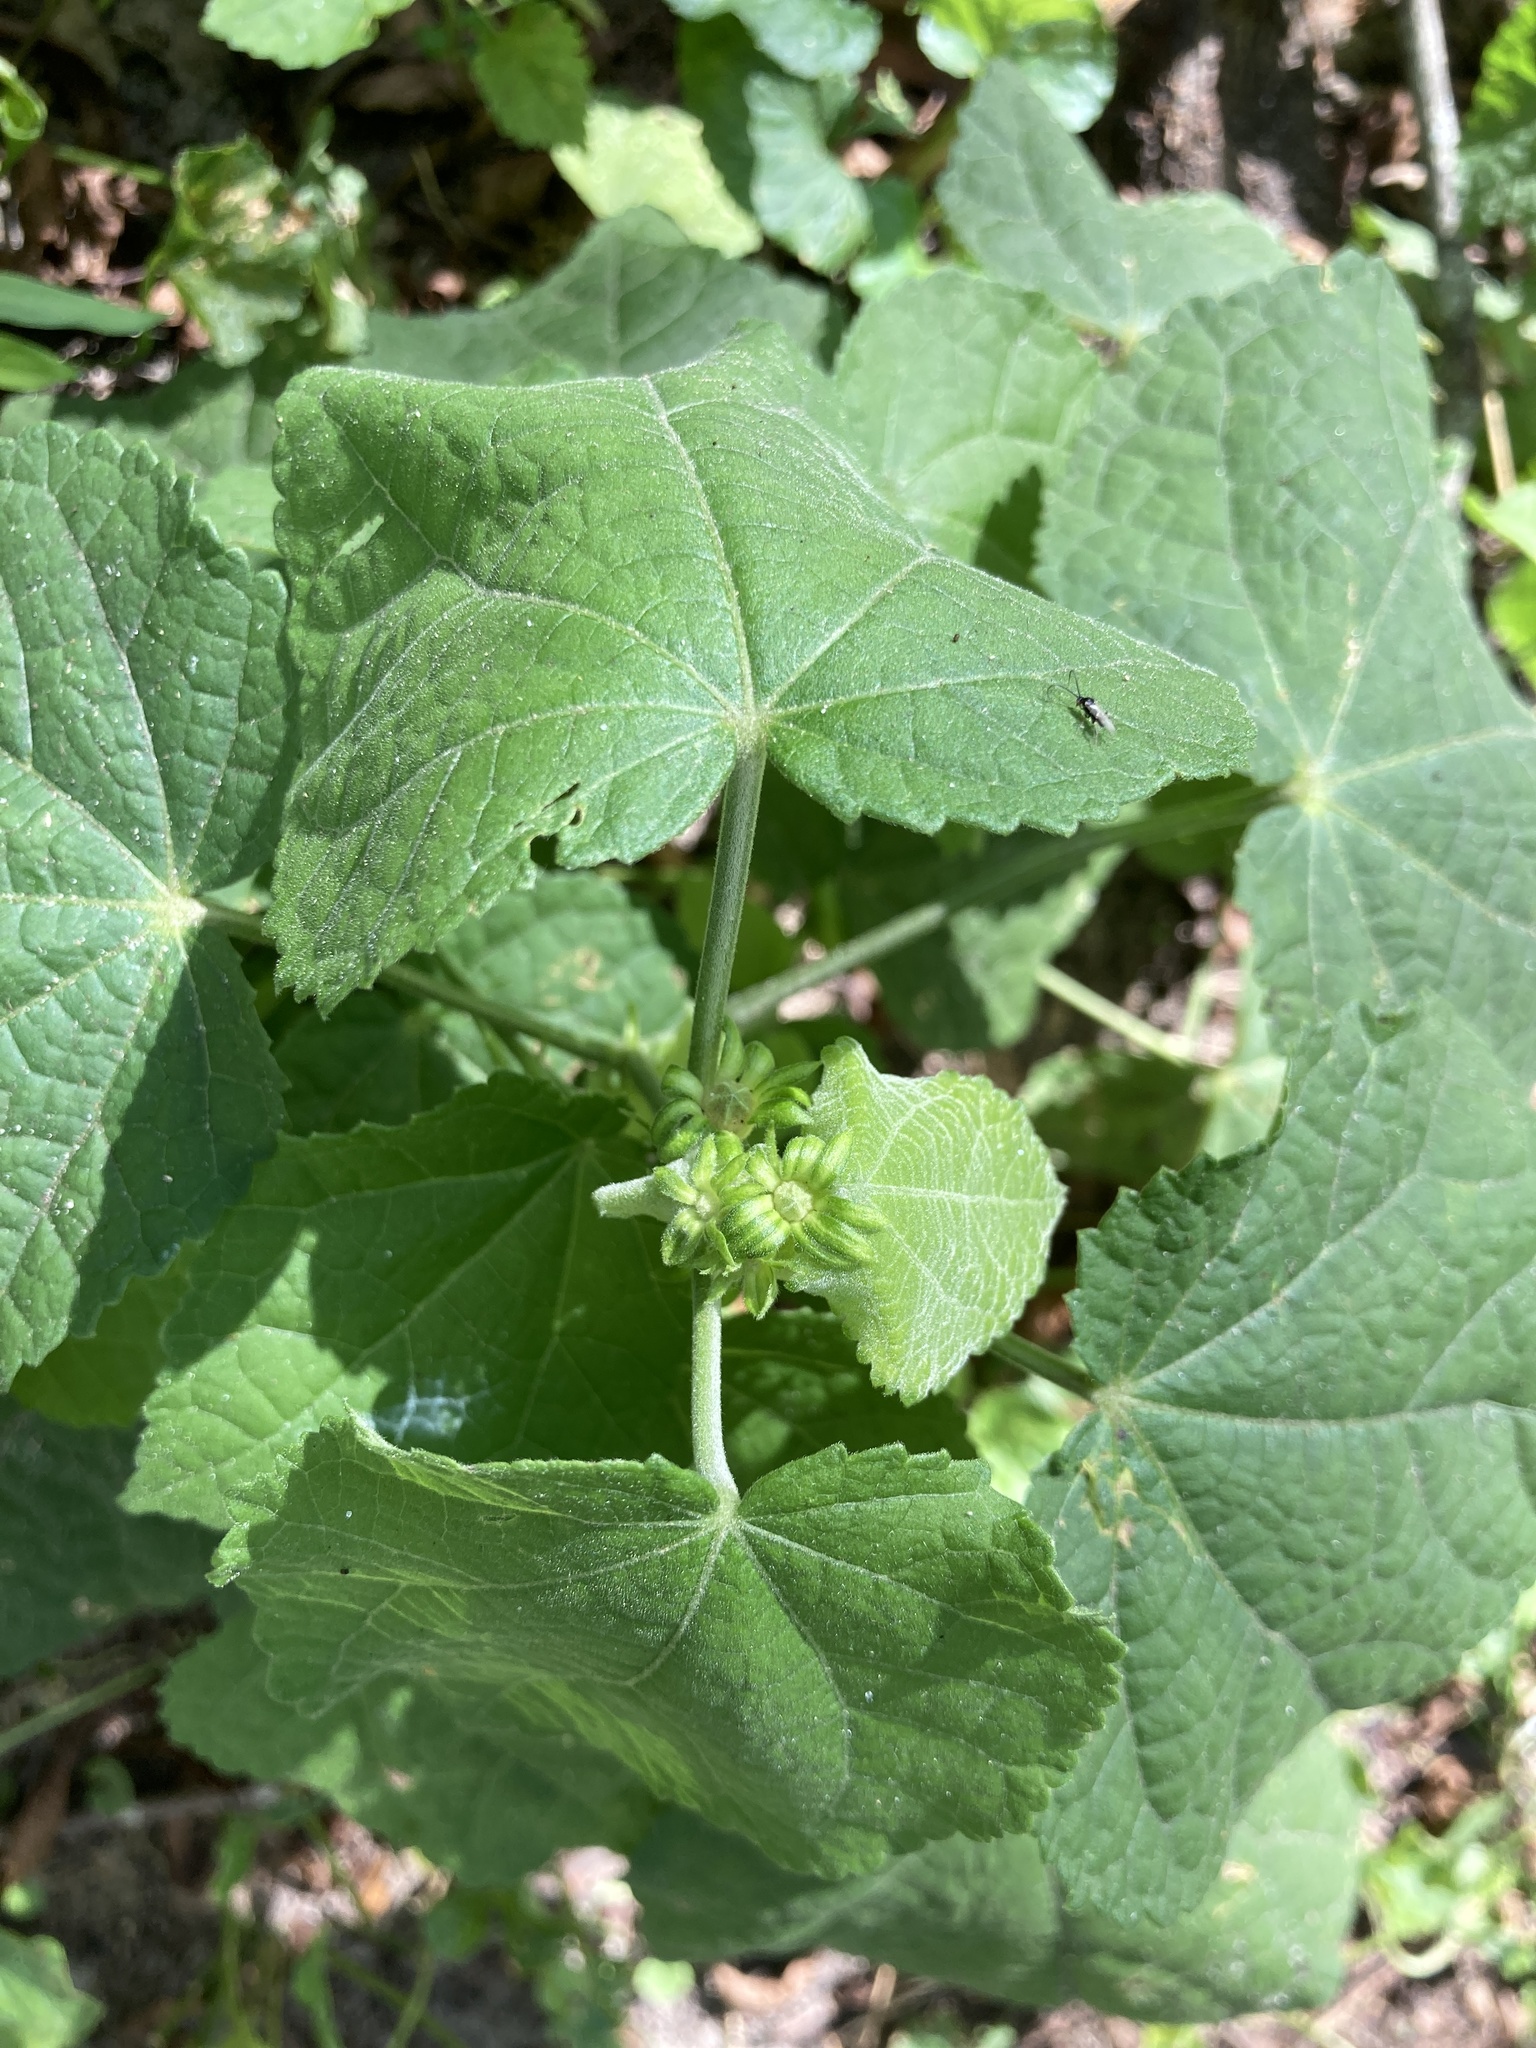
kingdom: Plantae
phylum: Tracheophyta
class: Magnoliopsida
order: Malvales
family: Malvaceae
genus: Malvaviscus
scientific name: Malvaviscus arboreus
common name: Wax mallow
